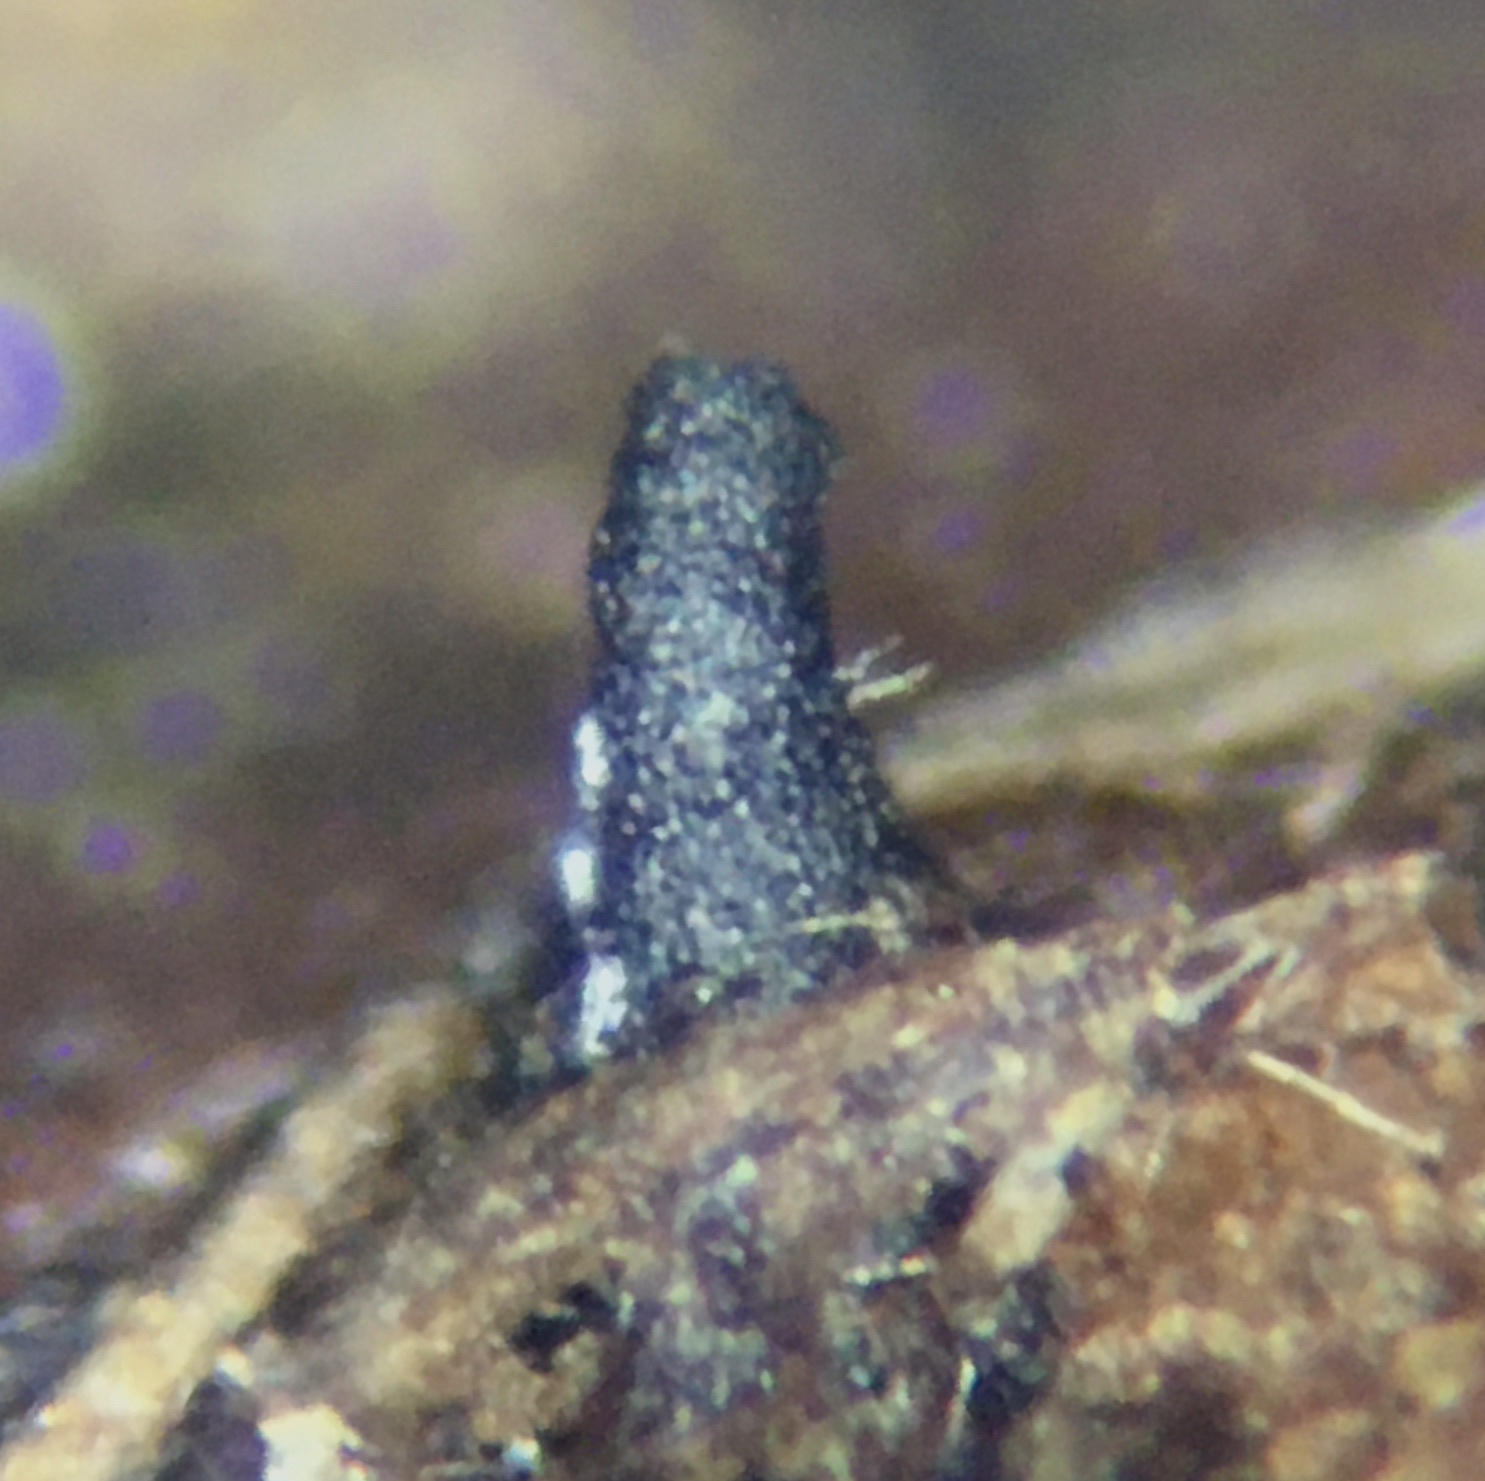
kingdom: Fungi
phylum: Ascomycota
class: Sordariomycetes
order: Sordariales
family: Podosporaceae
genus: Podospora
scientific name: Podospora leporina
